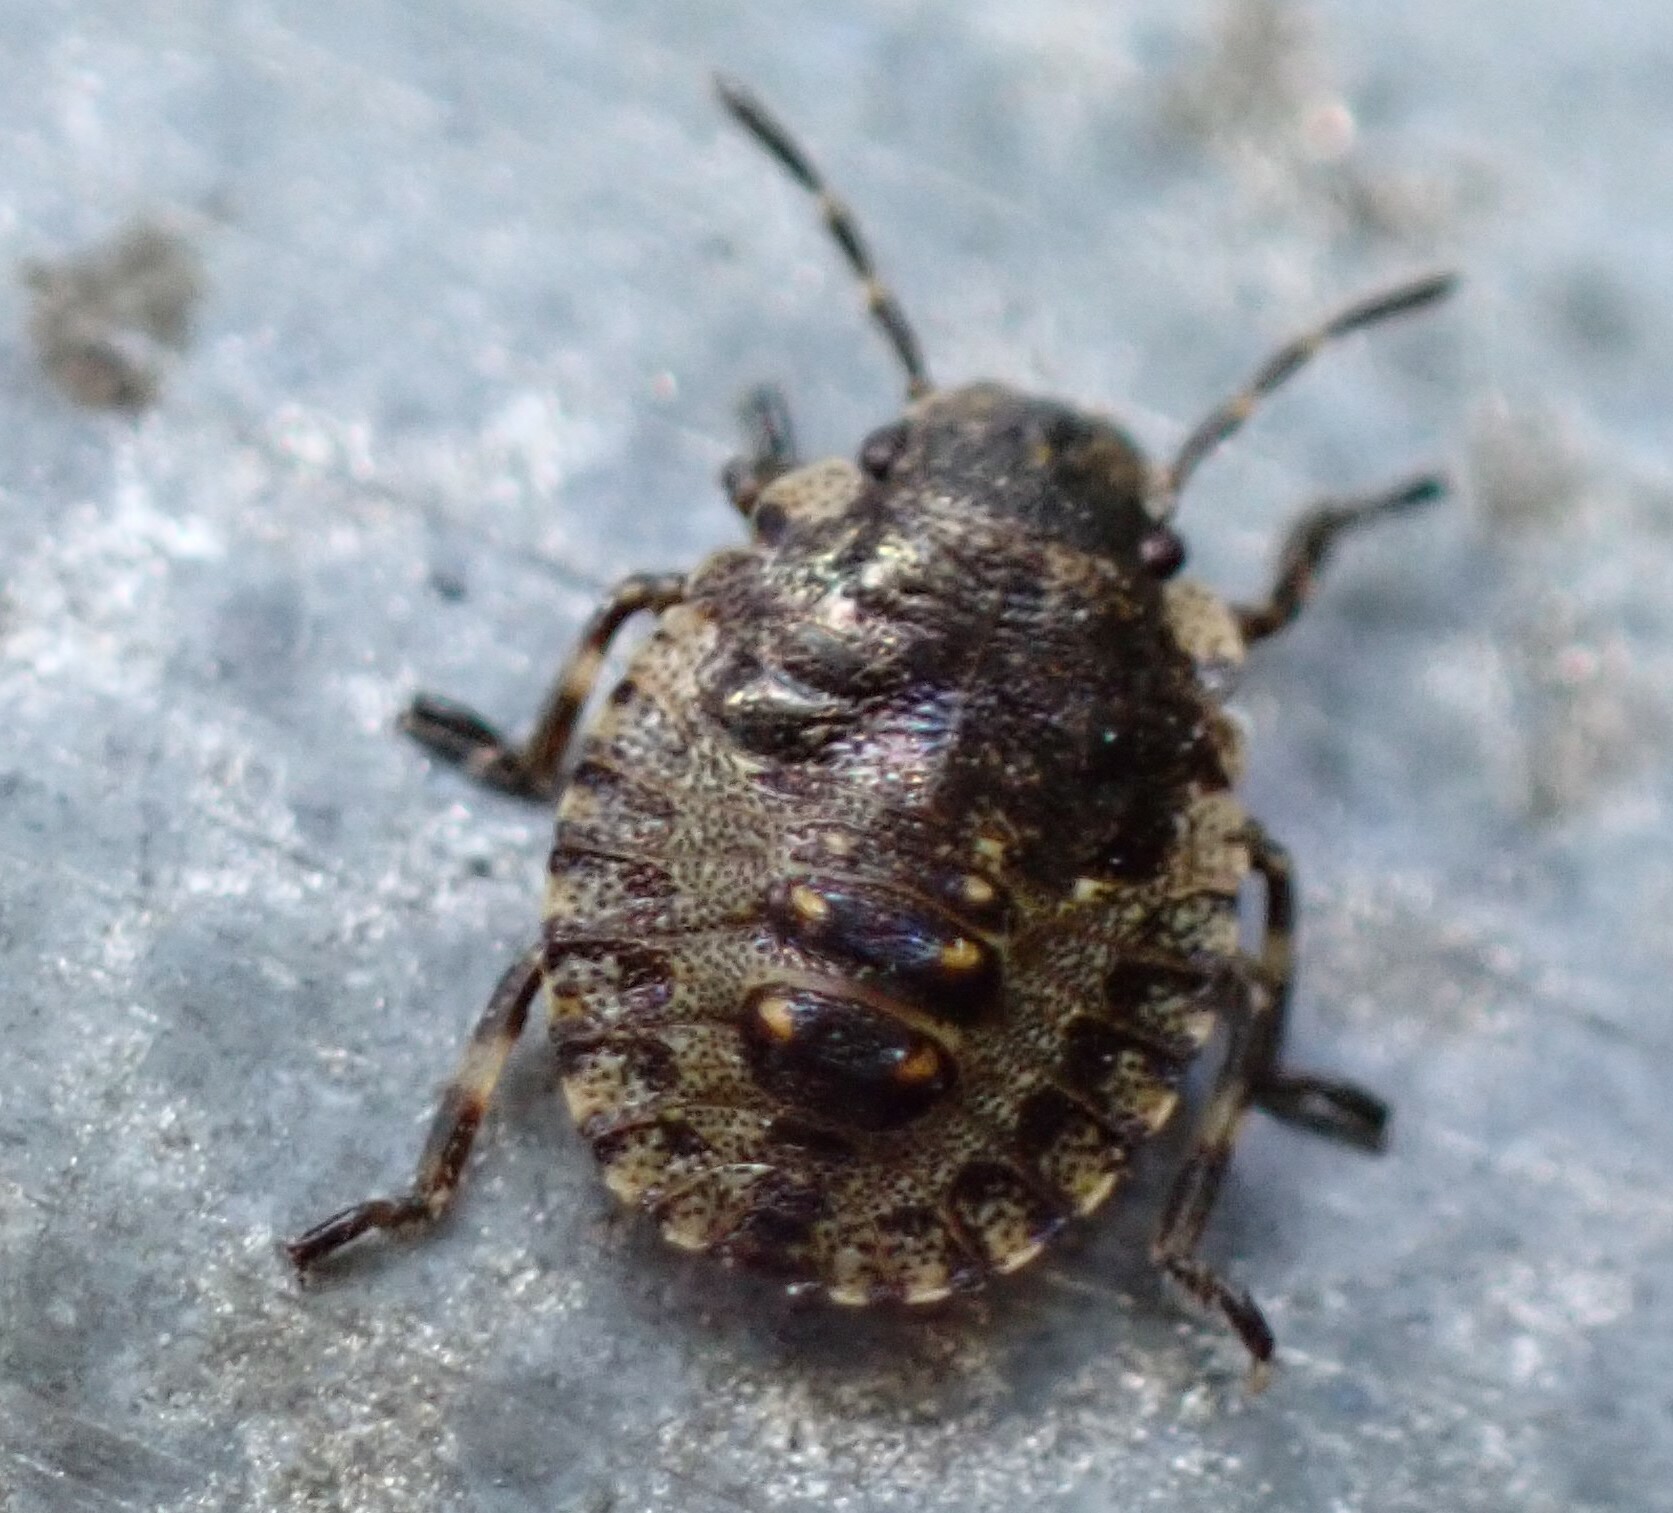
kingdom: Animalia
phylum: Arthropoda
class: Insecta
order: Hemiptera
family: Pentatomidae
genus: Pentatoma
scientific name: Pentatoma rufipes
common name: Forest bug
